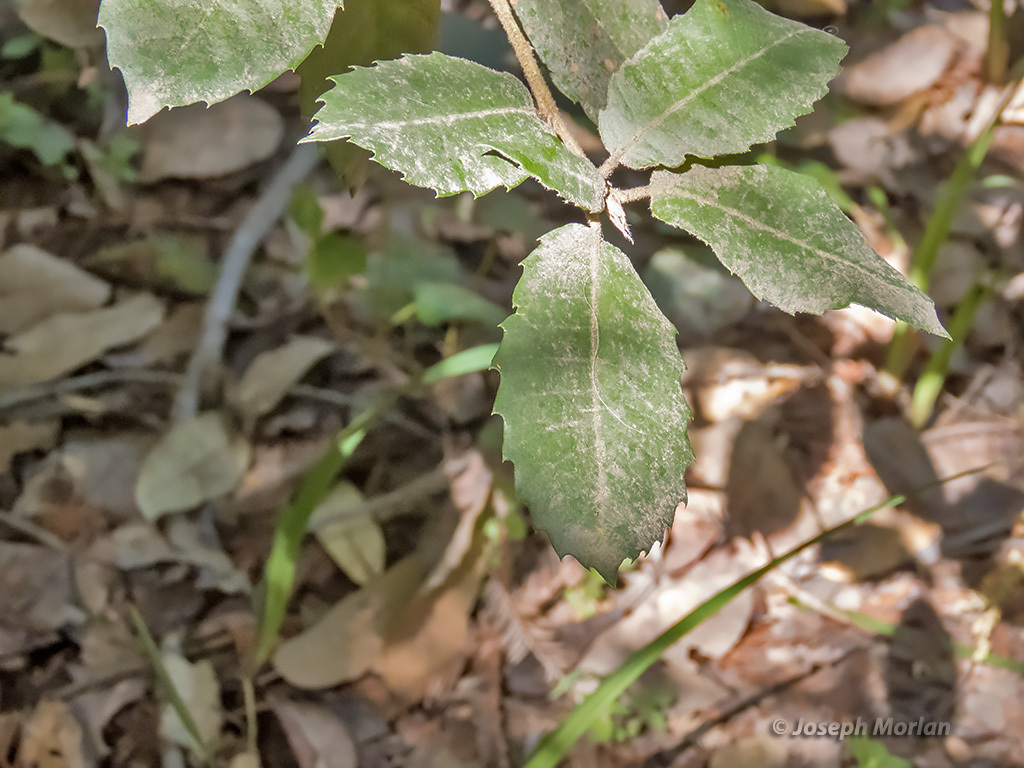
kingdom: Plantae
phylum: Tracheophyta
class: Magnoliopsida
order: Fagales
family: Fagaceae
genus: Notholithocarpus
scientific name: Notholithocarpus densiflorus
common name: Tan bark oak
